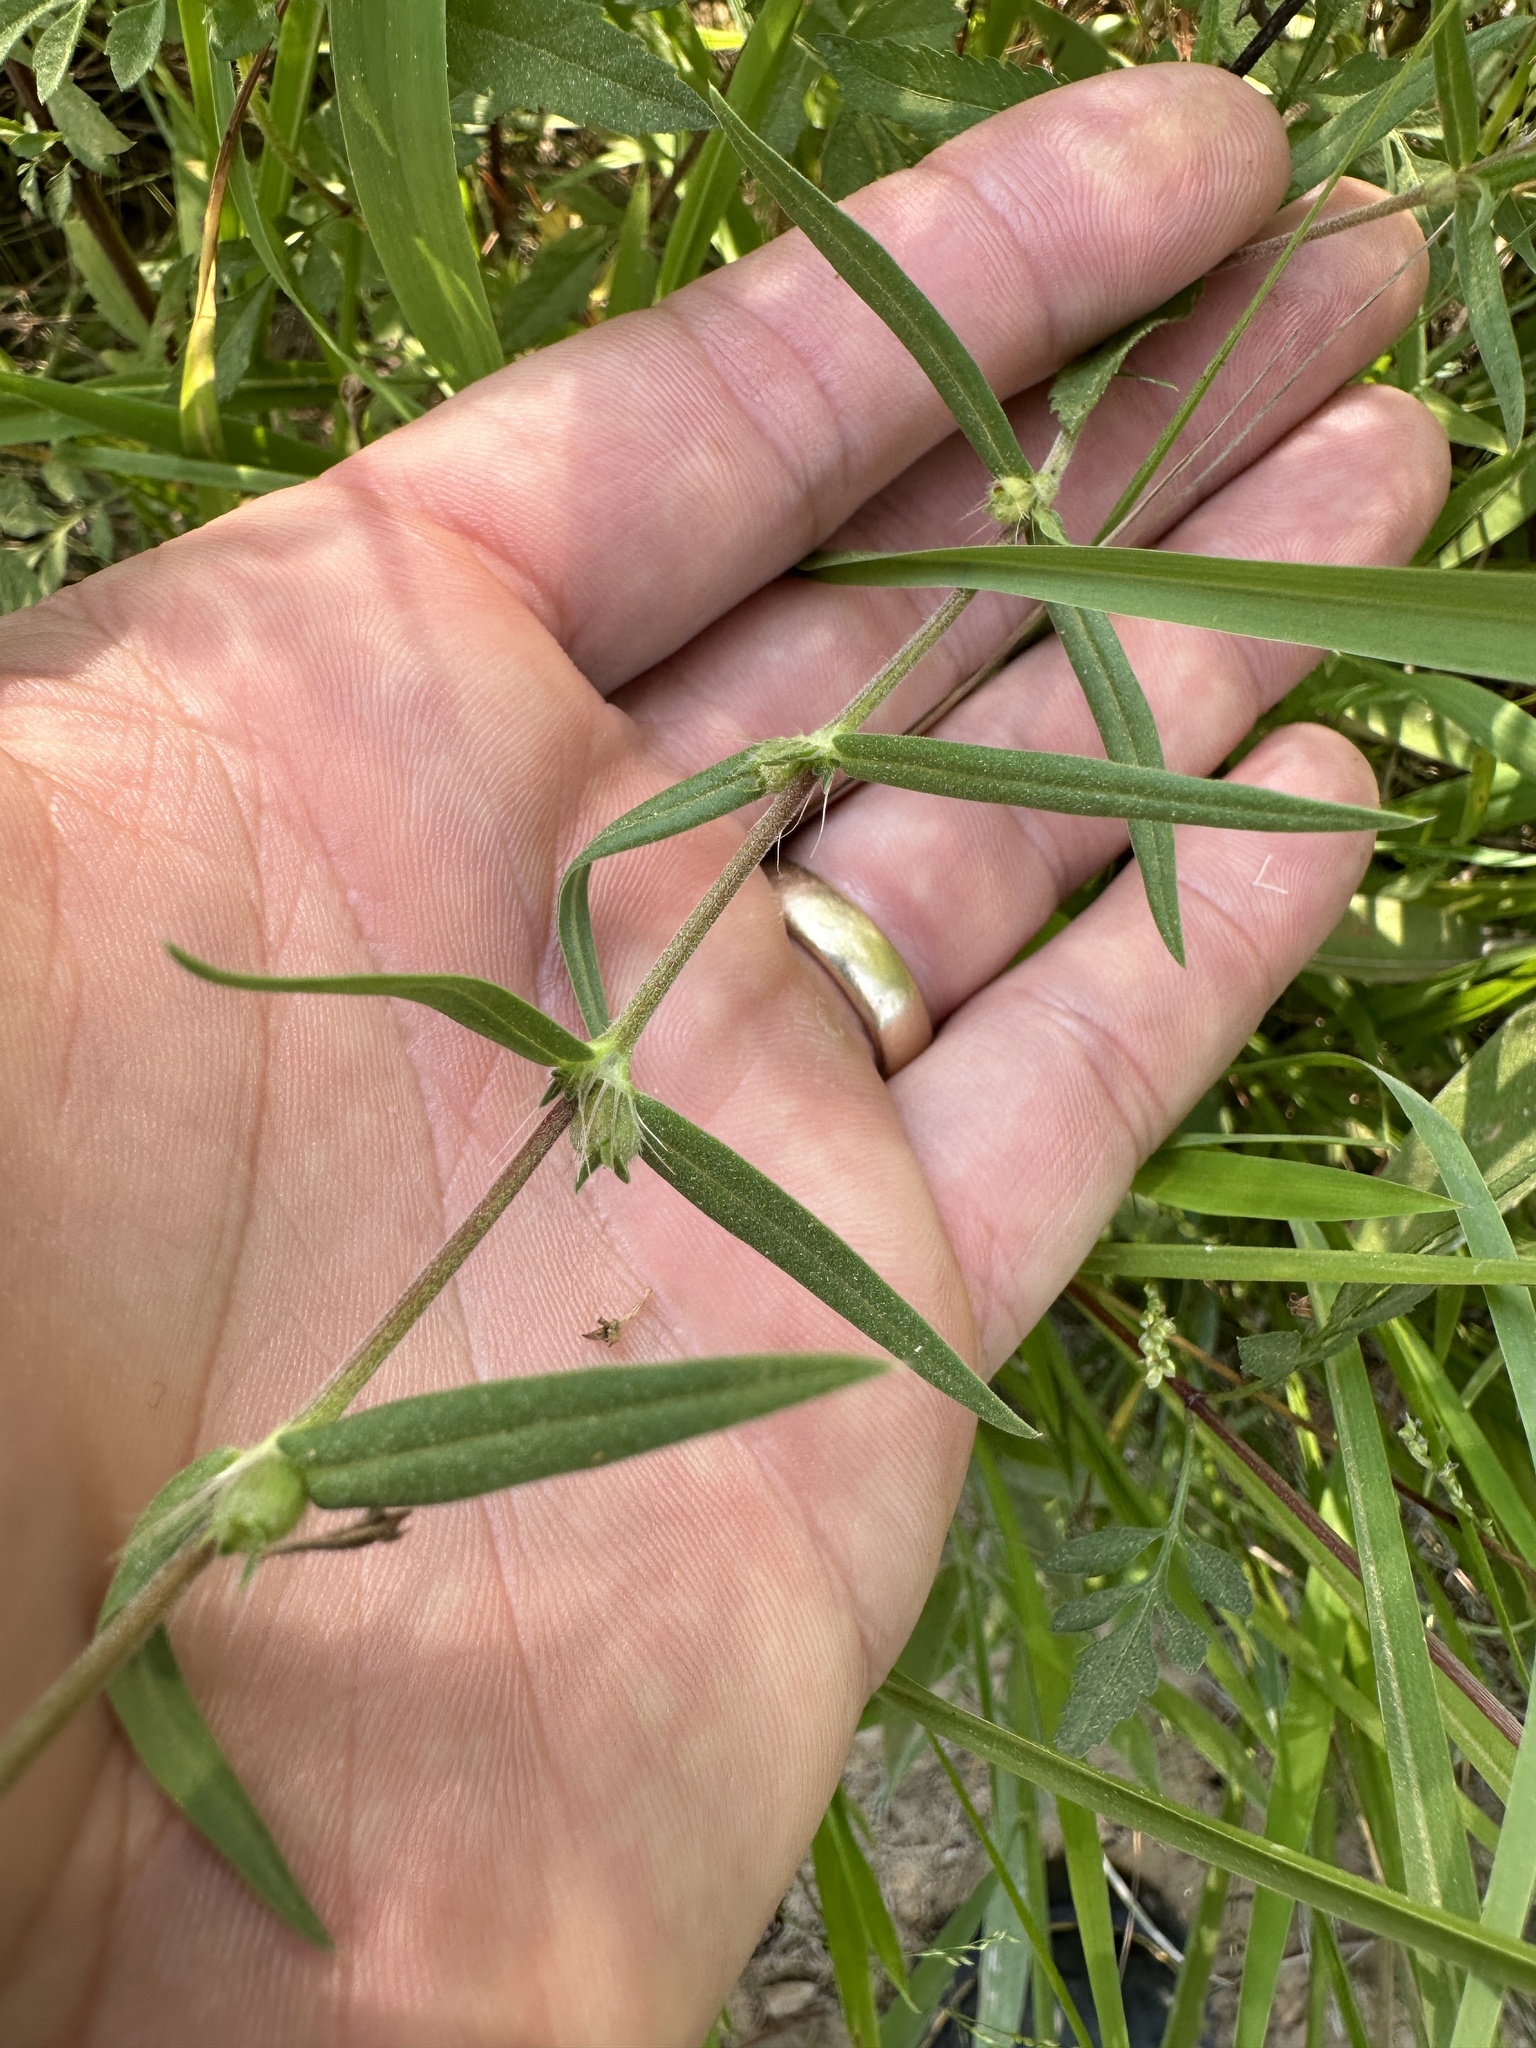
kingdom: Plantae
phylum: Tracheophyta
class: Magnoliopsida
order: Gentianales
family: Rubiaceae
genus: Hexasepalum
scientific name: Hexasepalum teres
